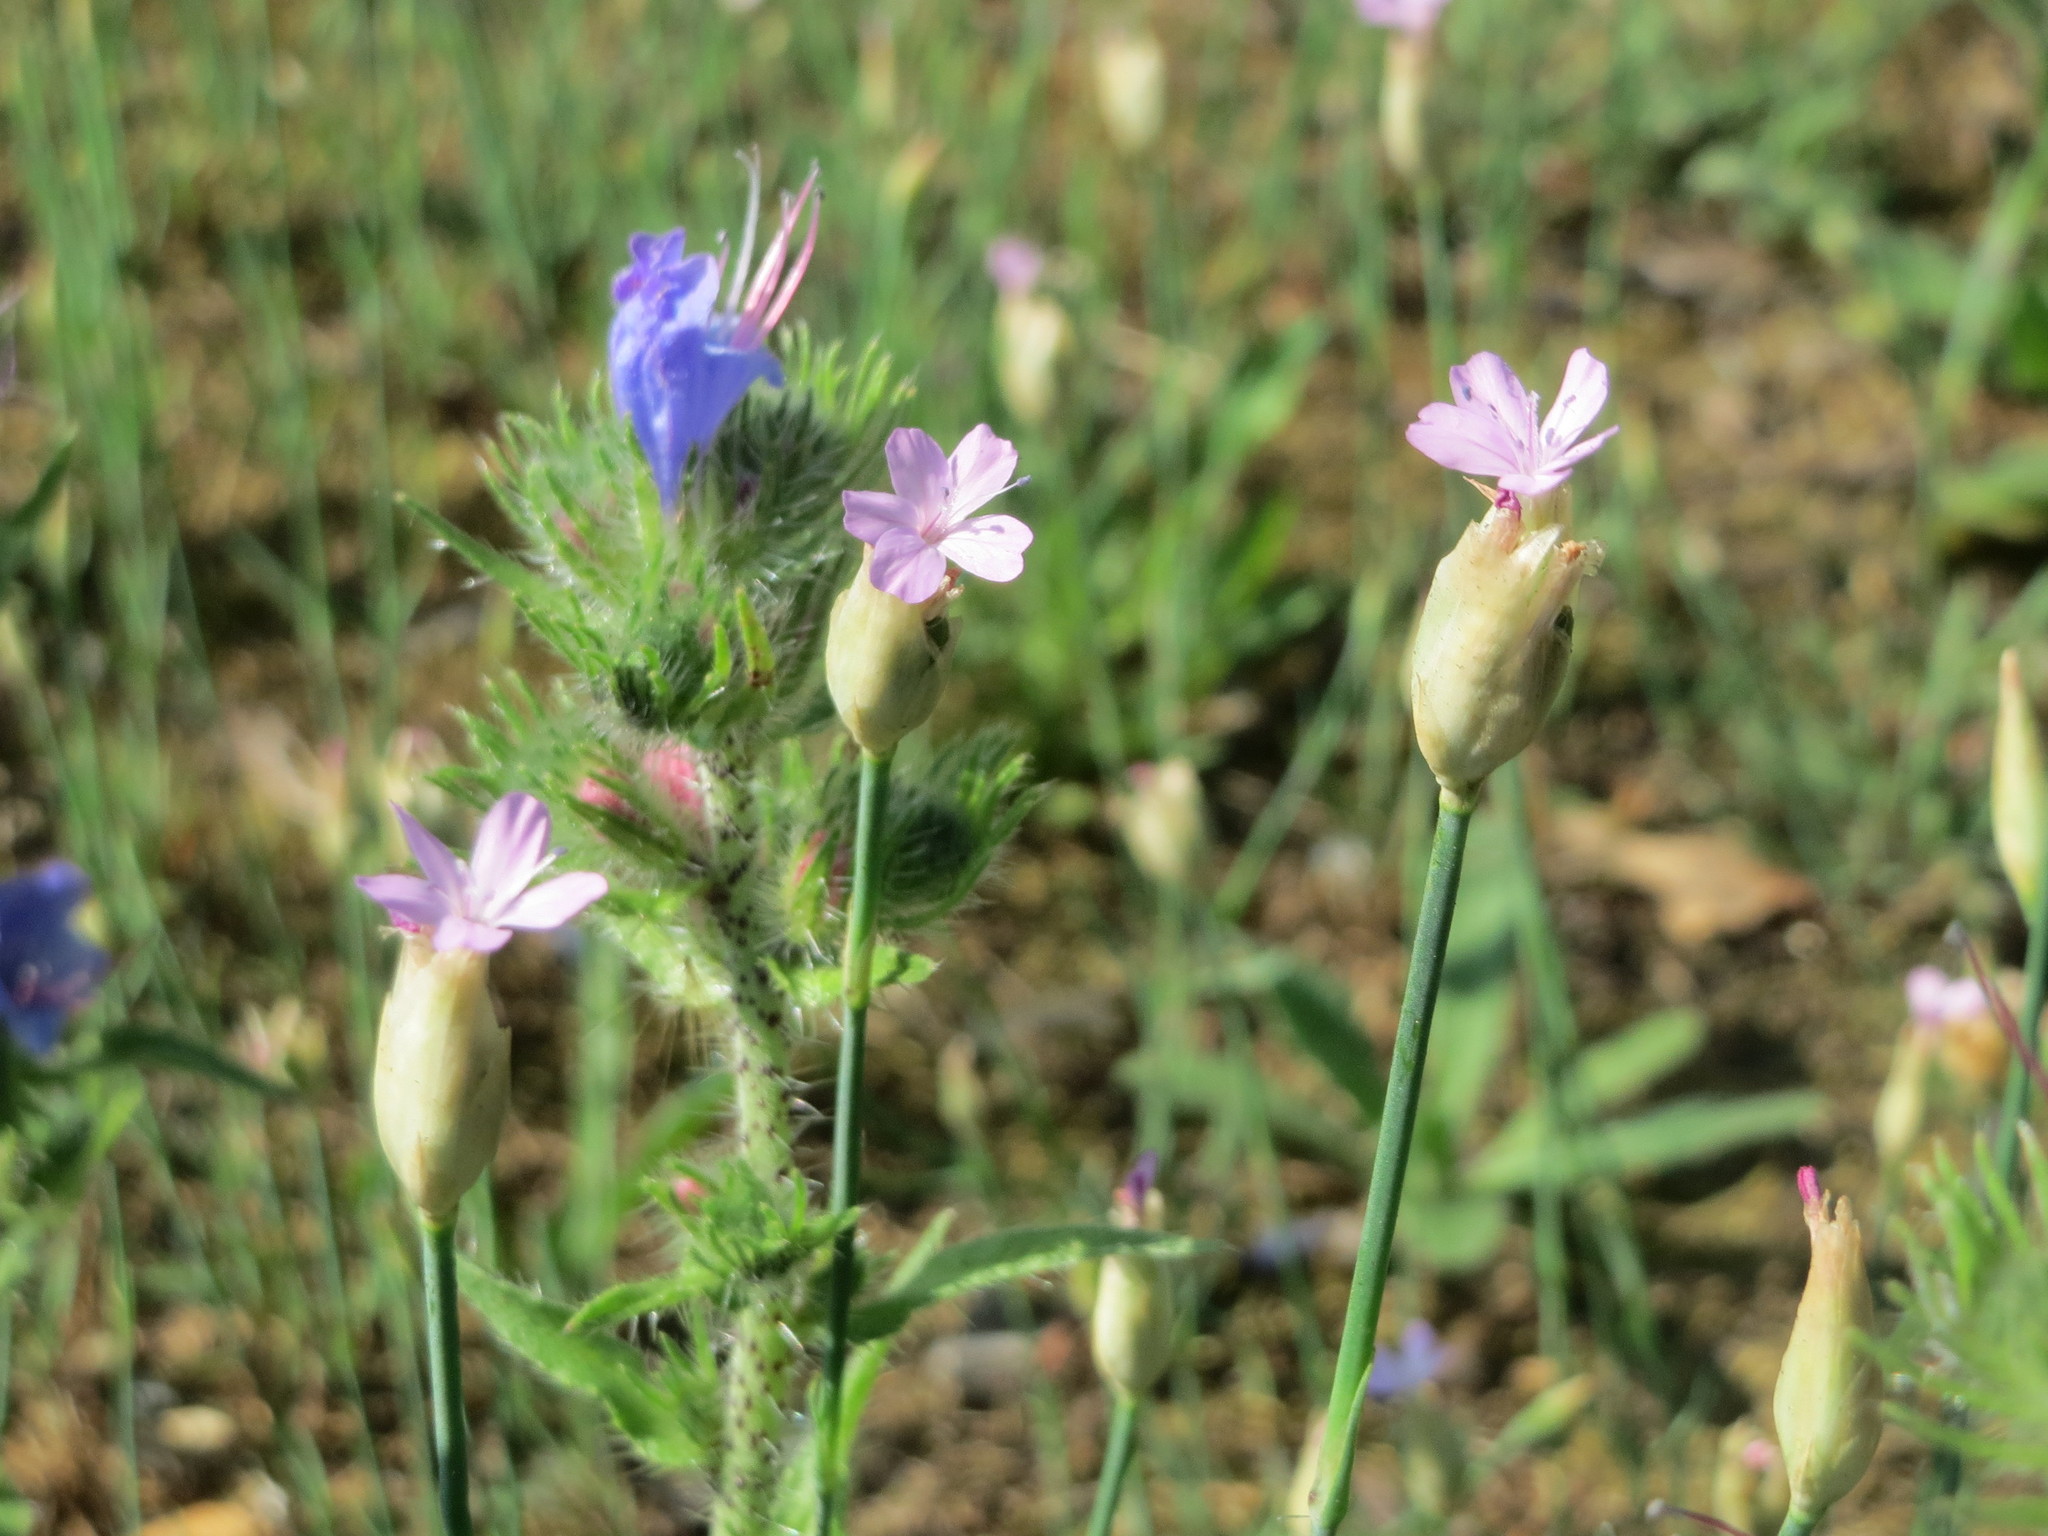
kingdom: Plantae
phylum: Tracheophyta
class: Magnoliopsida
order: Caryophyllales
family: Caryophyllaceae
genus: Petrorhagia
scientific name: Petrorhagia prolifera
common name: Proliferous pink
